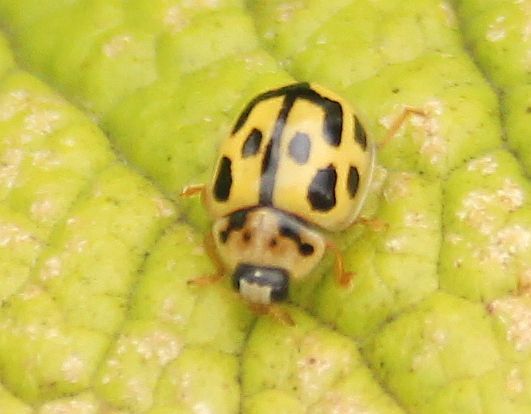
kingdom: Animalia
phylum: Arthropoda
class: Insecta
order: Coleoptera
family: Coccinellidae
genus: Propylaea
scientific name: Propylaea quatuordecimpunctata
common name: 14-spotted ladybird beetle
